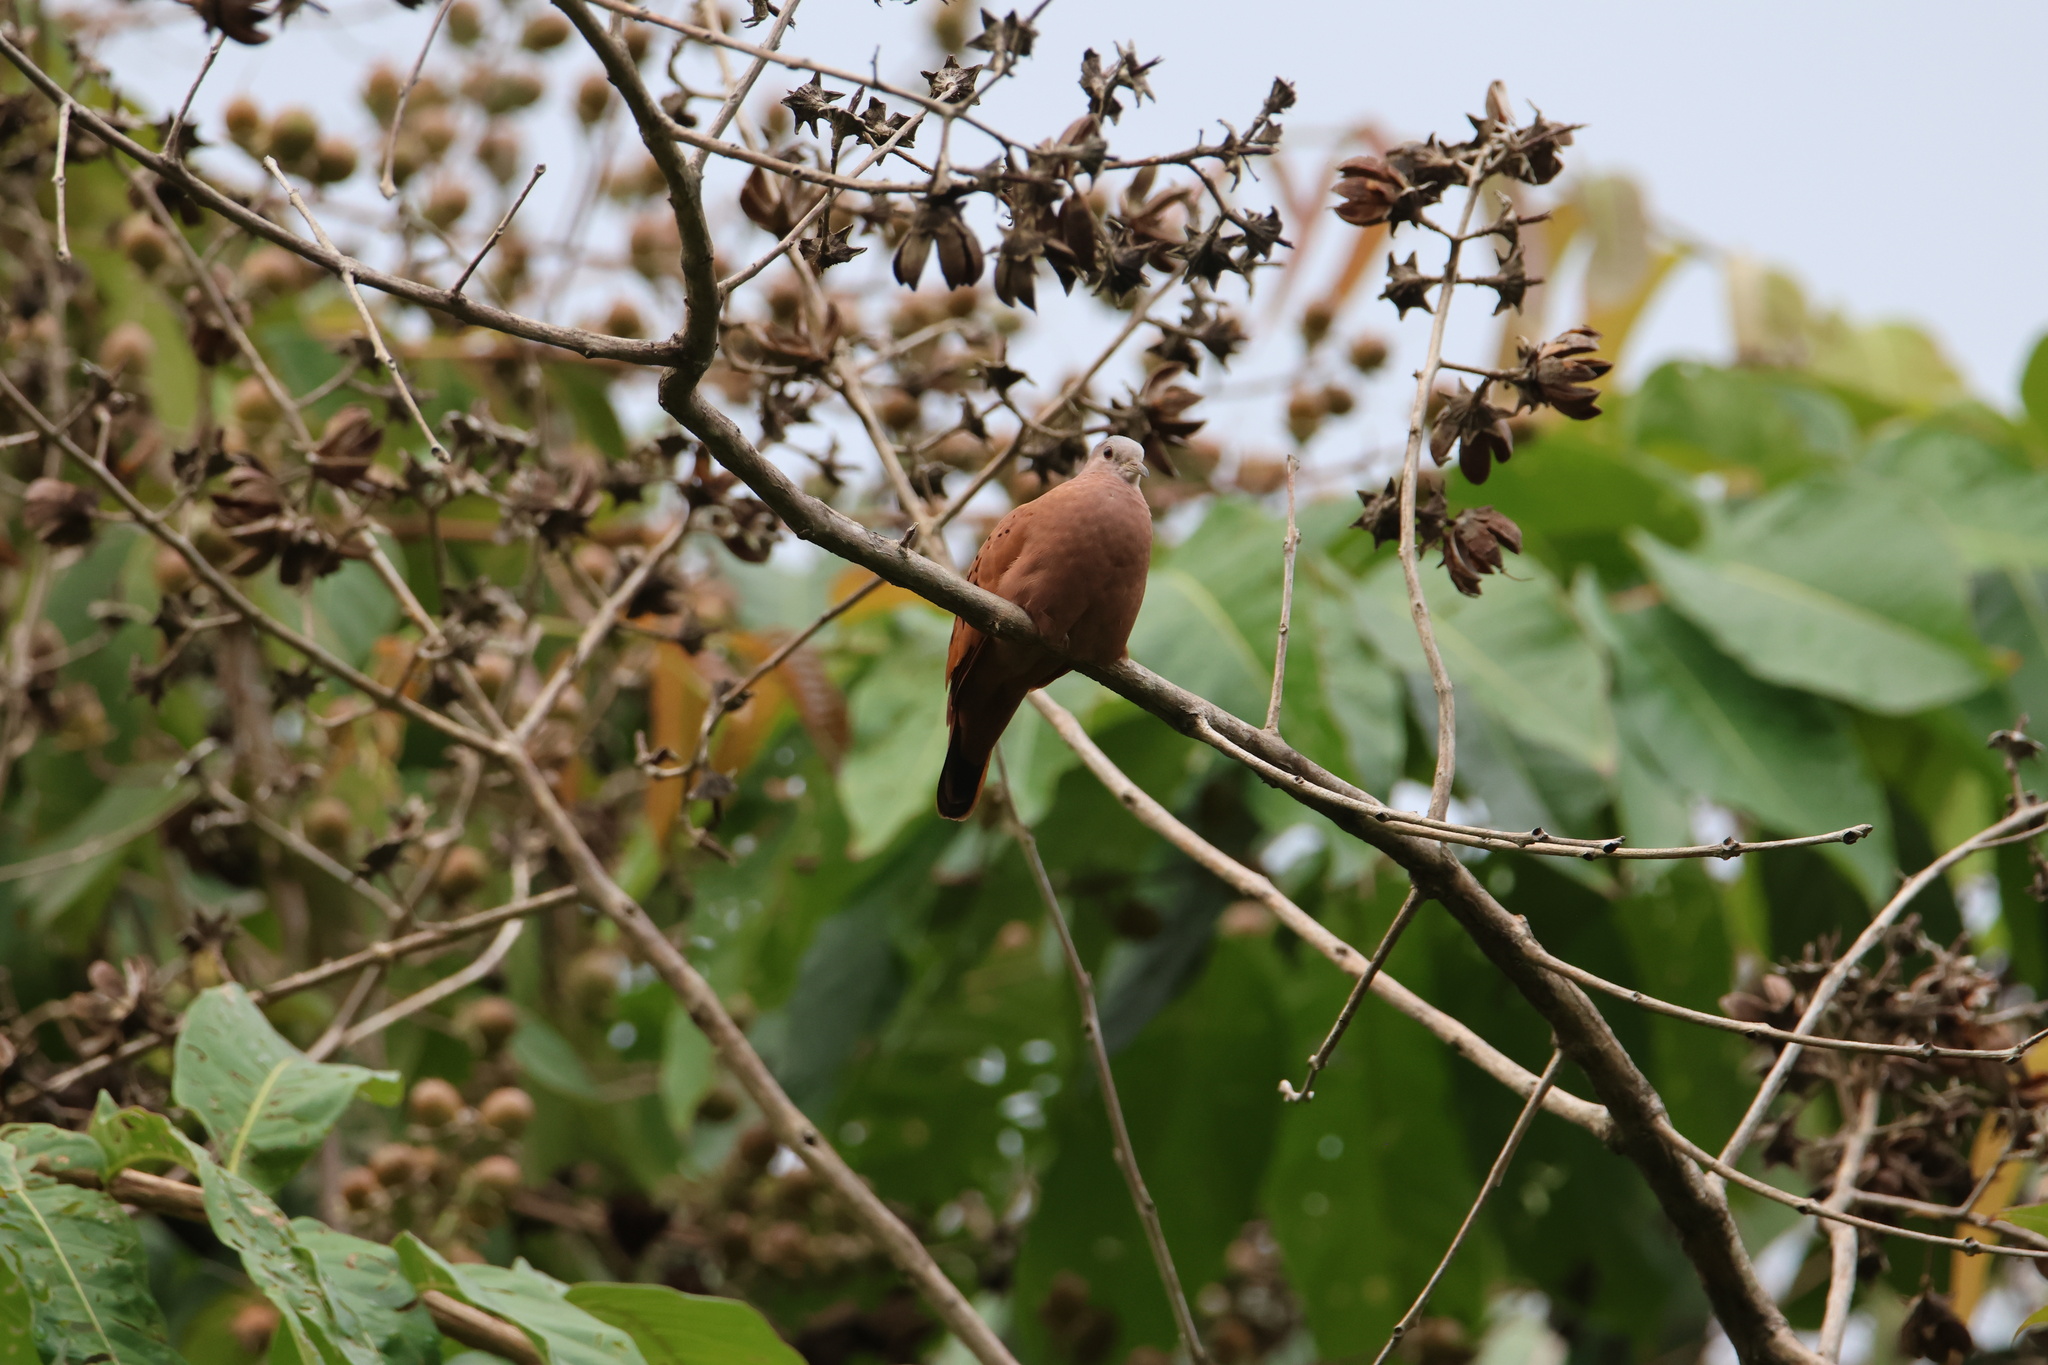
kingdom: Animalia
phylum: Chordata
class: Aves
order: Columbiformes
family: Columbidae
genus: Columbina
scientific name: Columbina talpacoti
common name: Ruddy ground dove
